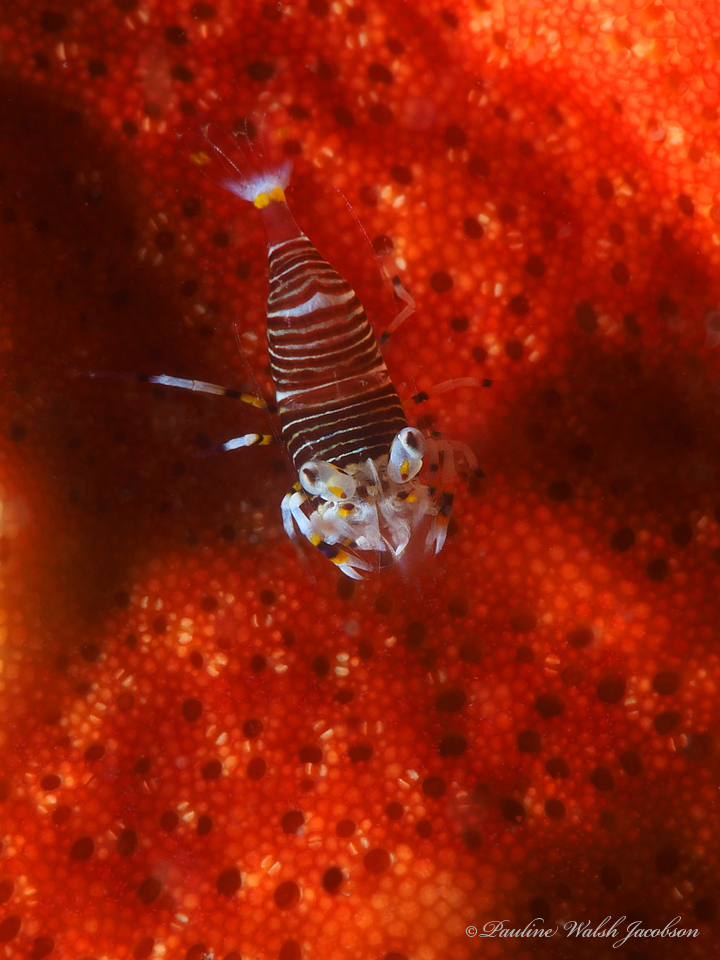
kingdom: Animalia
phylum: Arthropoda
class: Malacostraca
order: Decapoda
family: Palaemonidae
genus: Gnathophyllum
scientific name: Gnathophyllum americanum
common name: Bumblebee shrimp
